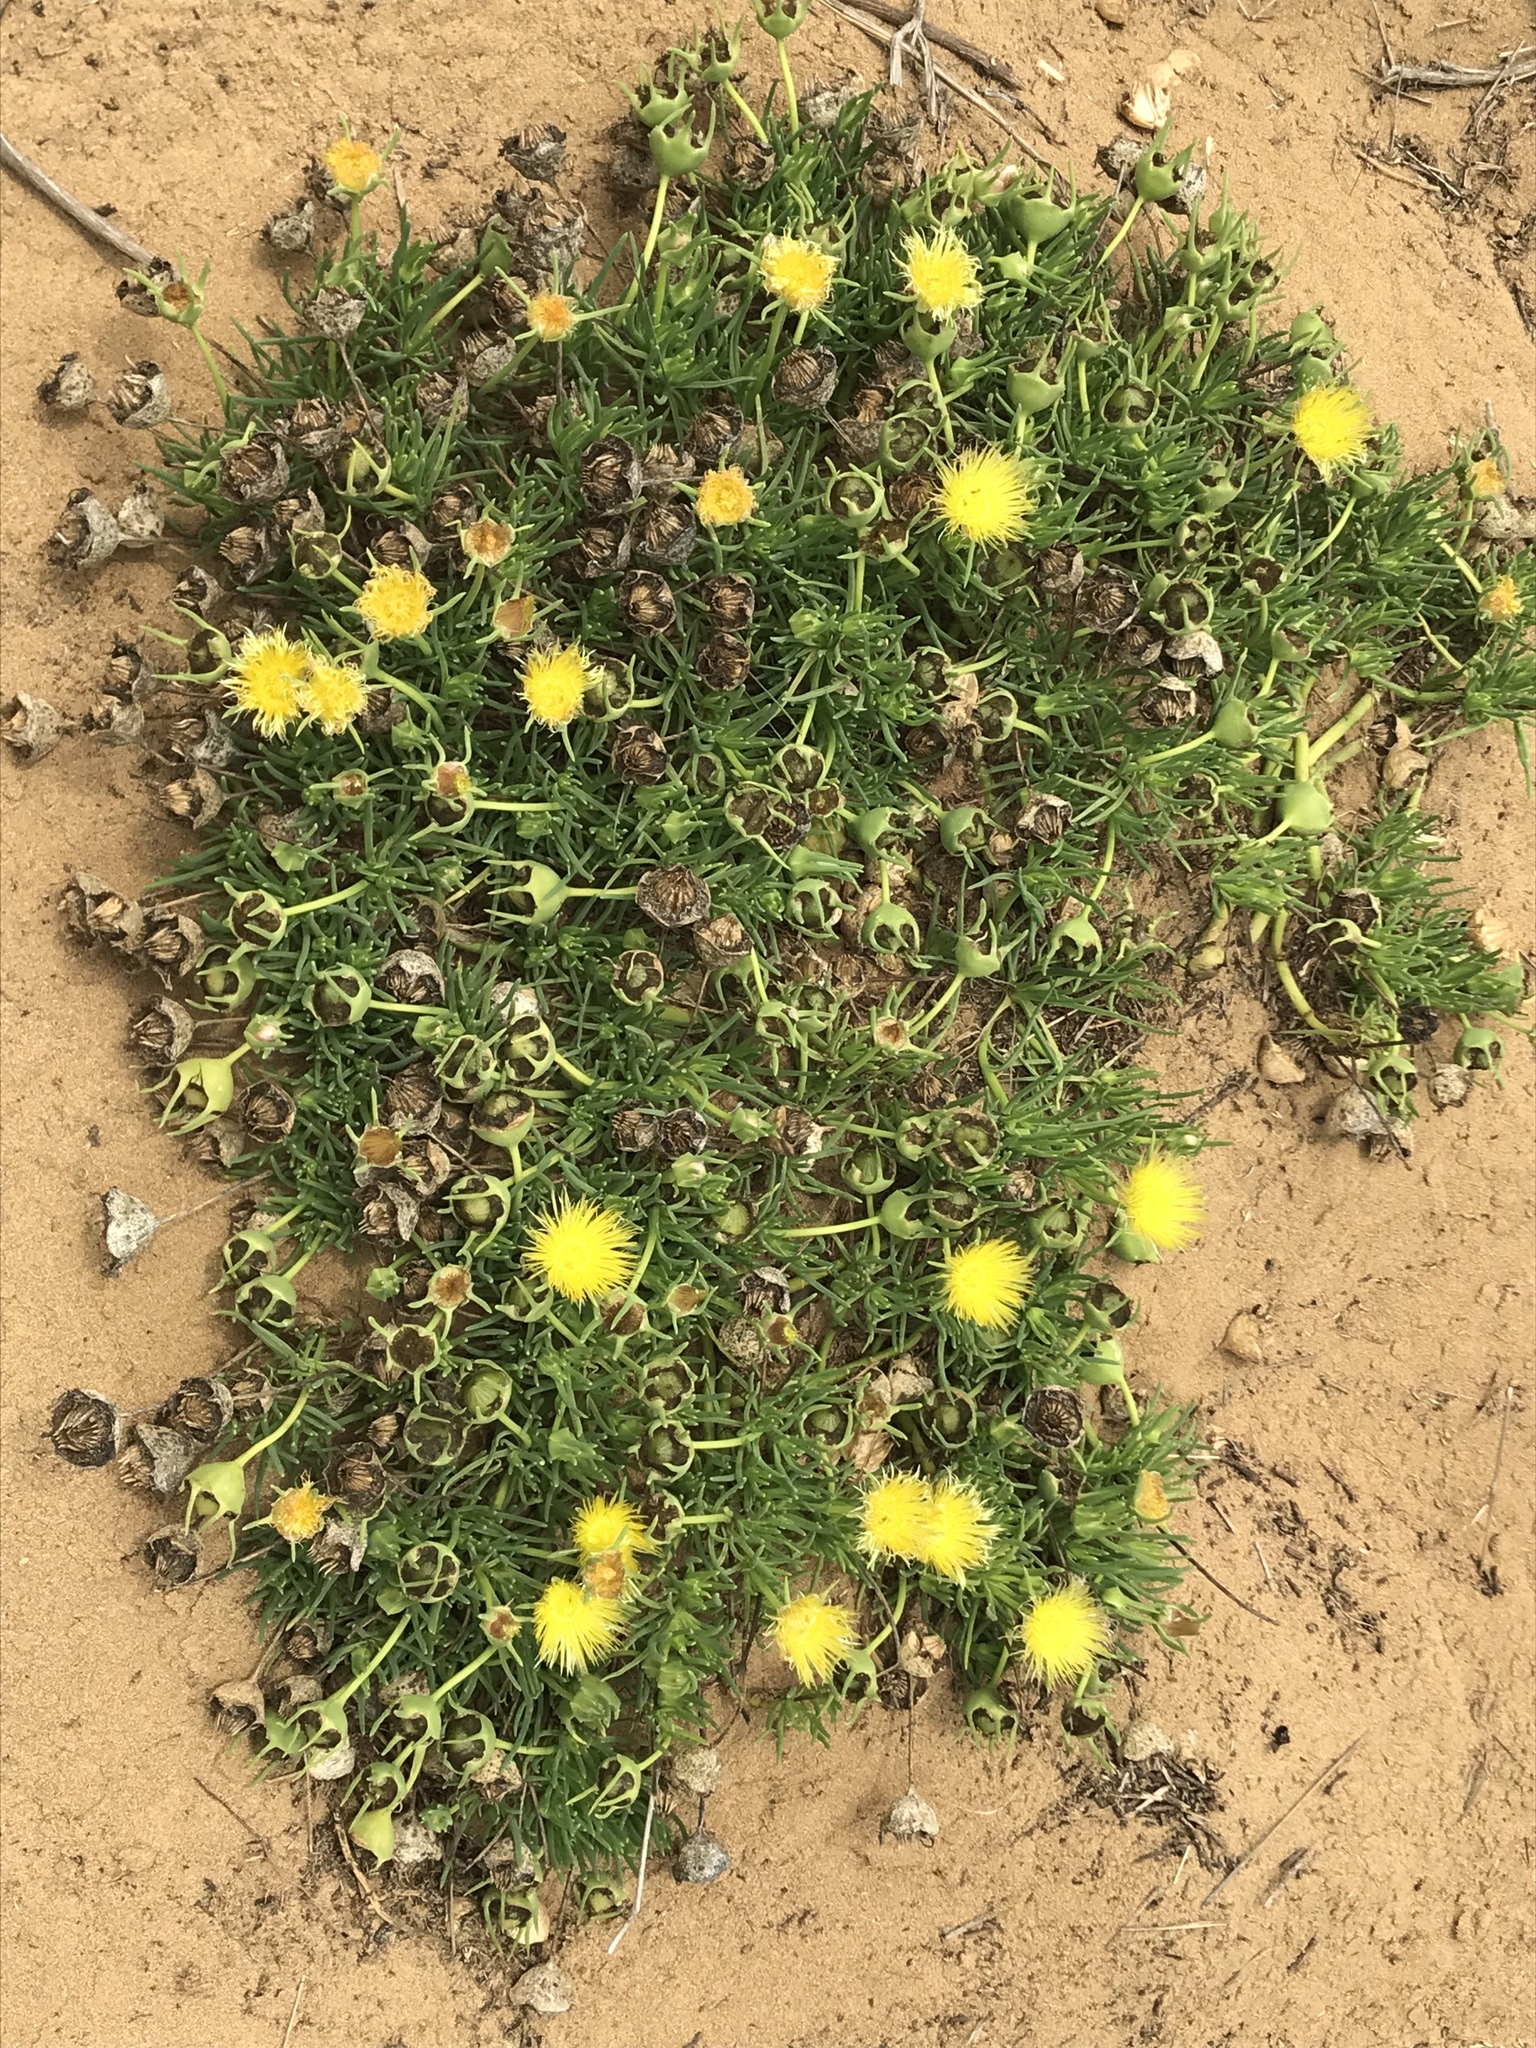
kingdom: Plantae
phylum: Tracheophyta
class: Magnoliopsida
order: Caryophyllales
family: Aizoaceae
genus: Conicosia
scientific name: Conicosia pugioniformis
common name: Narrow-leaved iceplant
